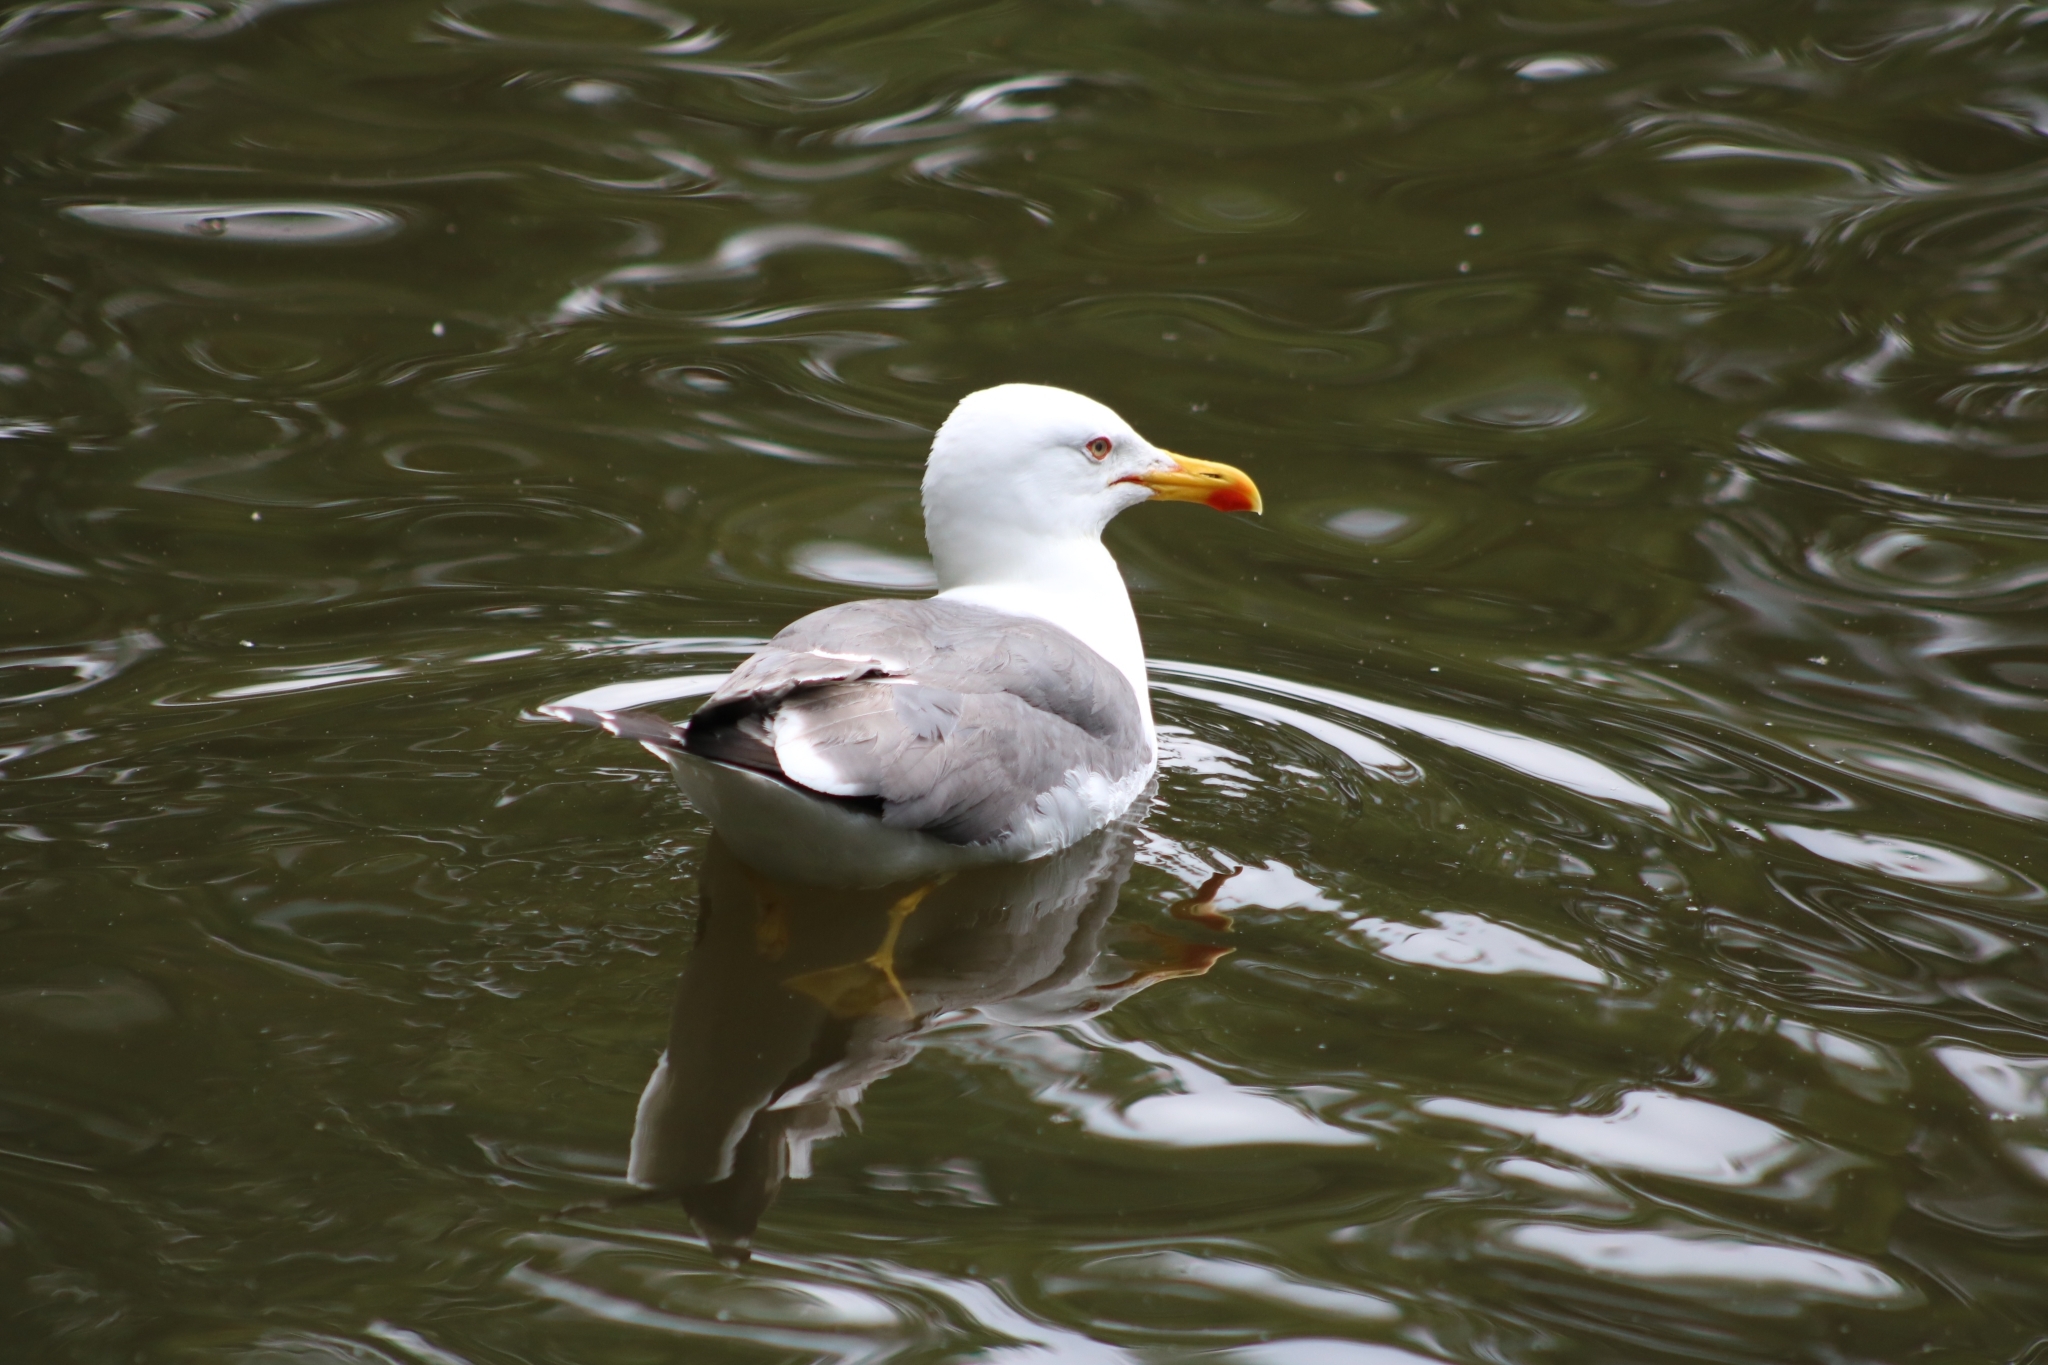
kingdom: Animalia
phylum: Chordata
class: Aves
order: Charadriiformes
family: Laridae
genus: Larus
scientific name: Larus fuscus
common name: Lesser black-backed gull
